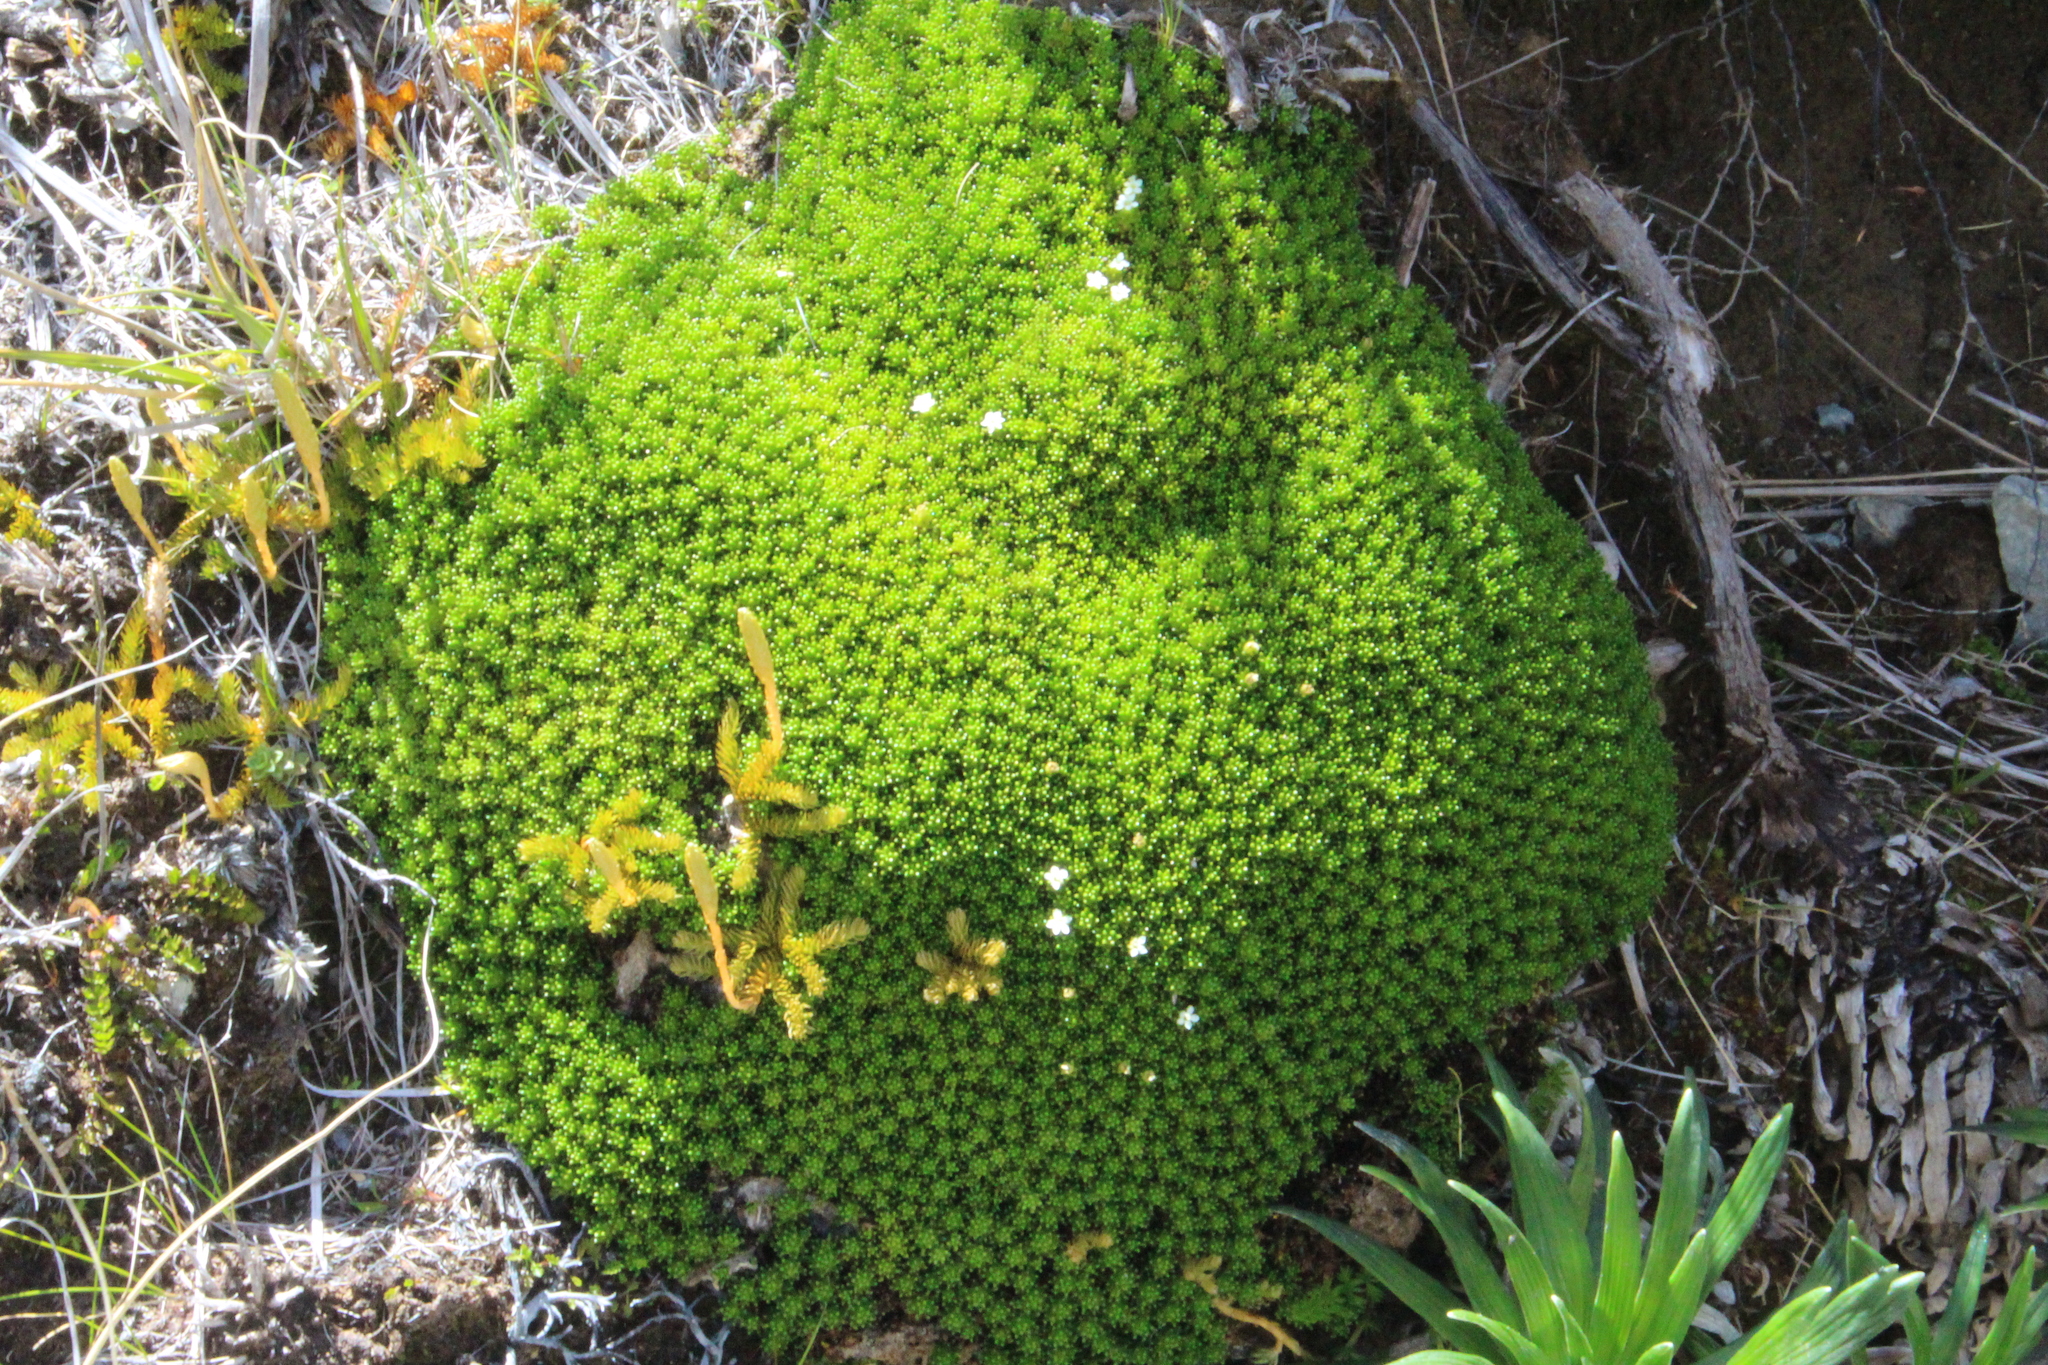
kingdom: Plantae
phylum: Tracheophyta
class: Magnoliopsida
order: Asterales
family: Stylidiaceae
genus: Phyllachne
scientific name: Phyllachne colensoi
